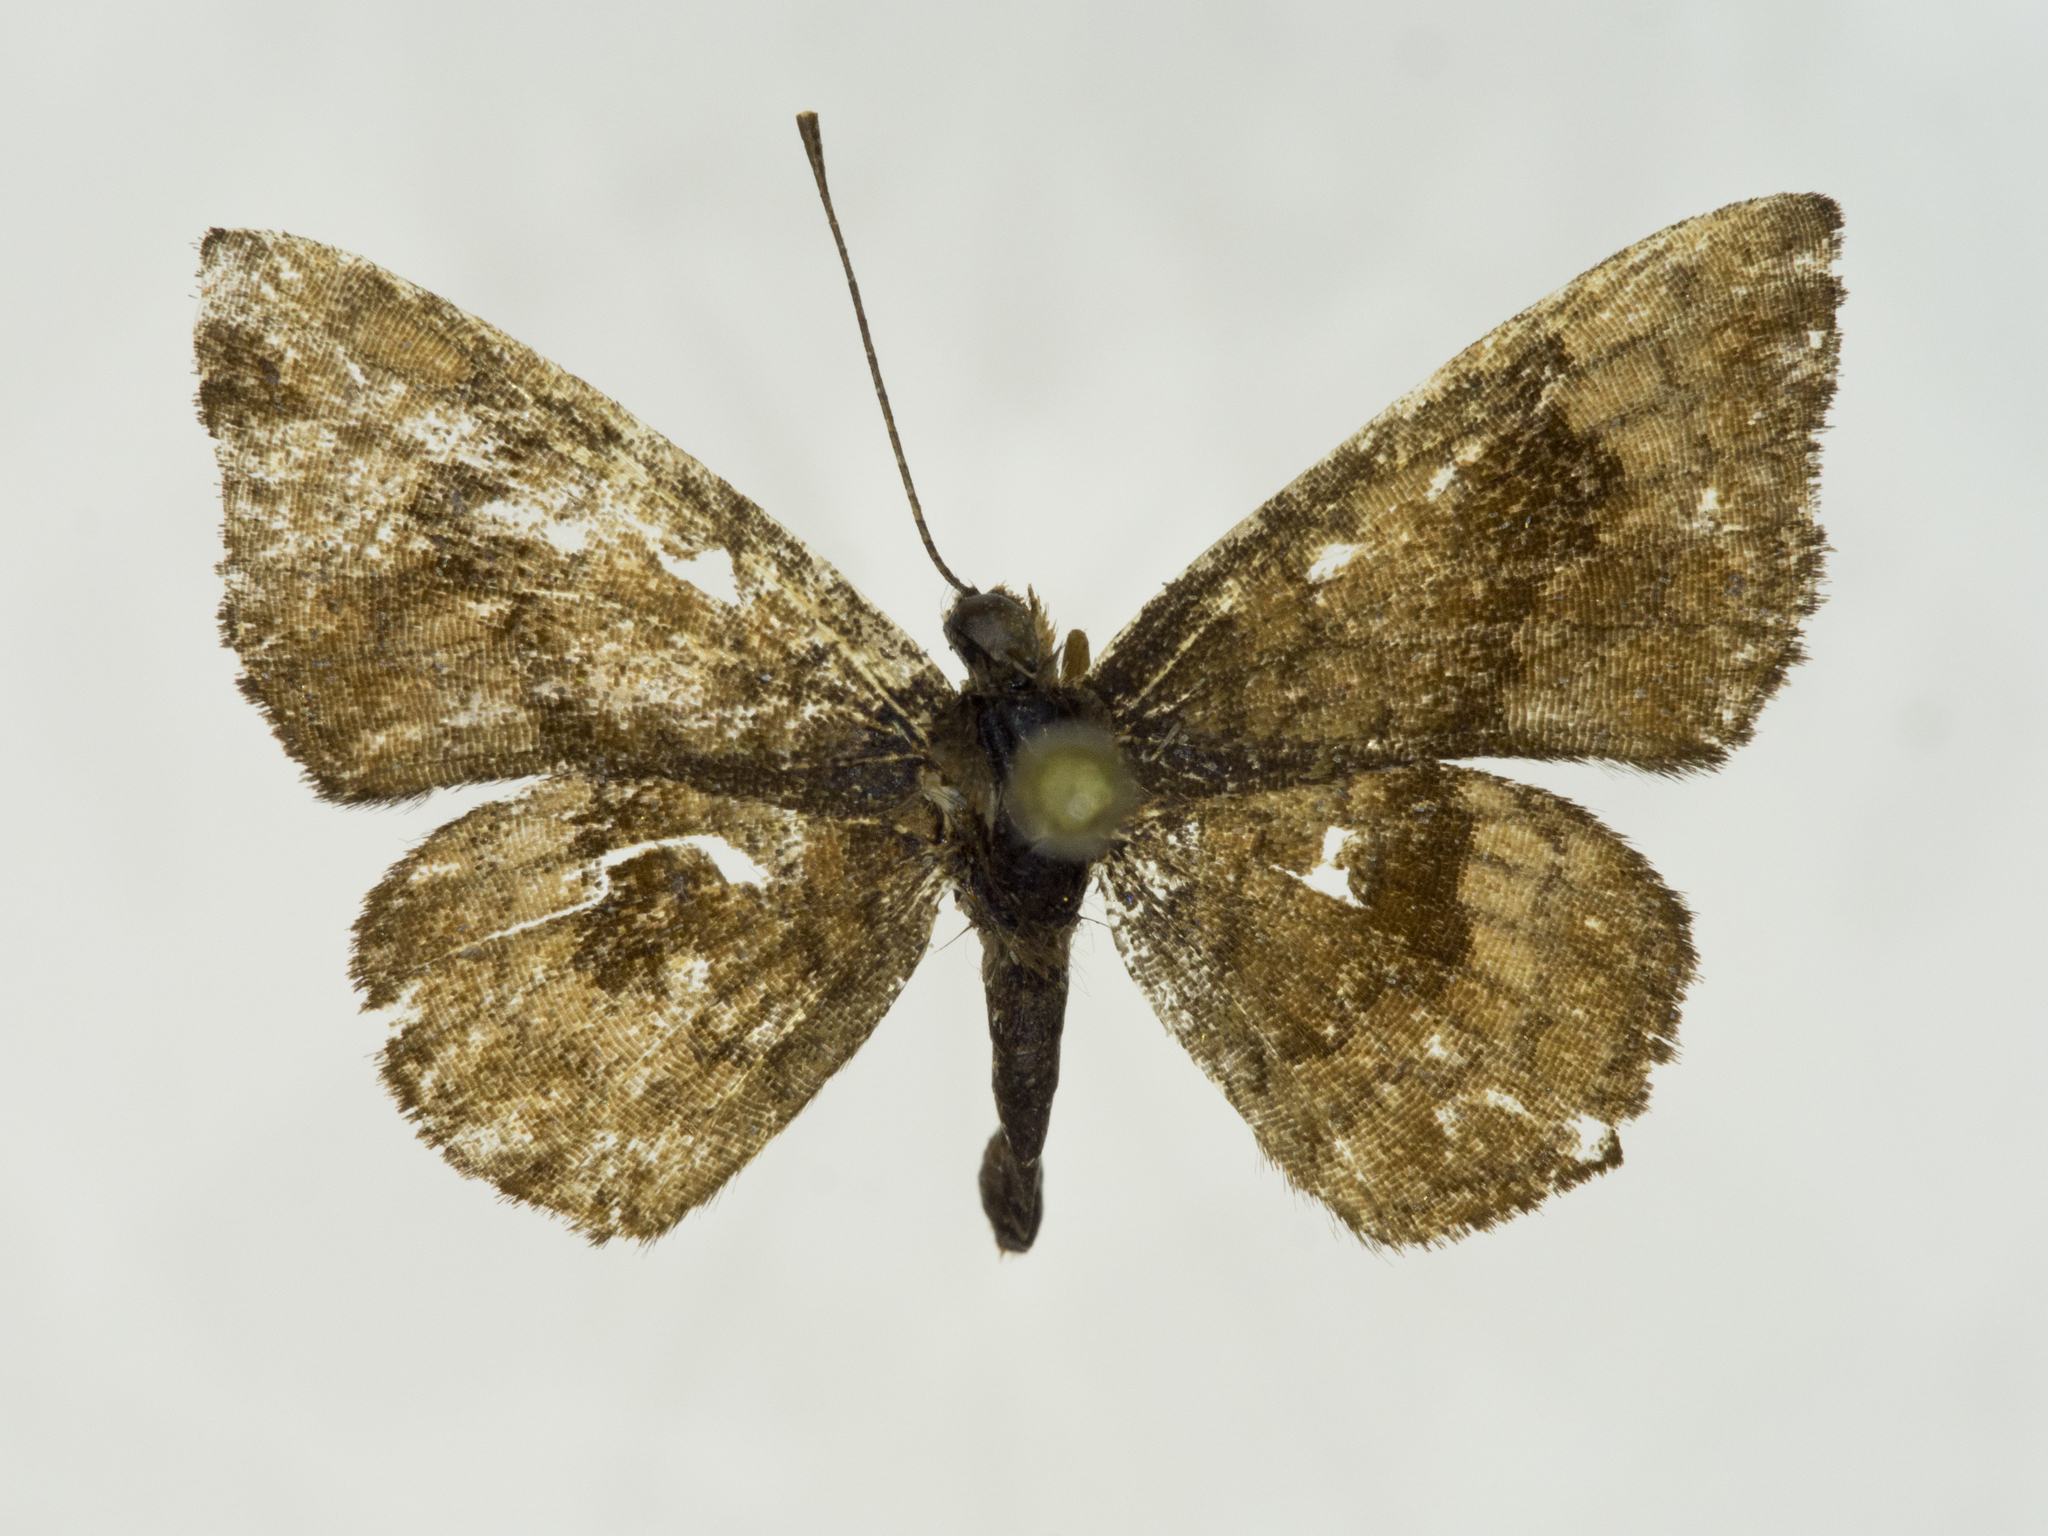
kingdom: Animalia
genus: Calephelis
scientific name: Calephelis nemesis
